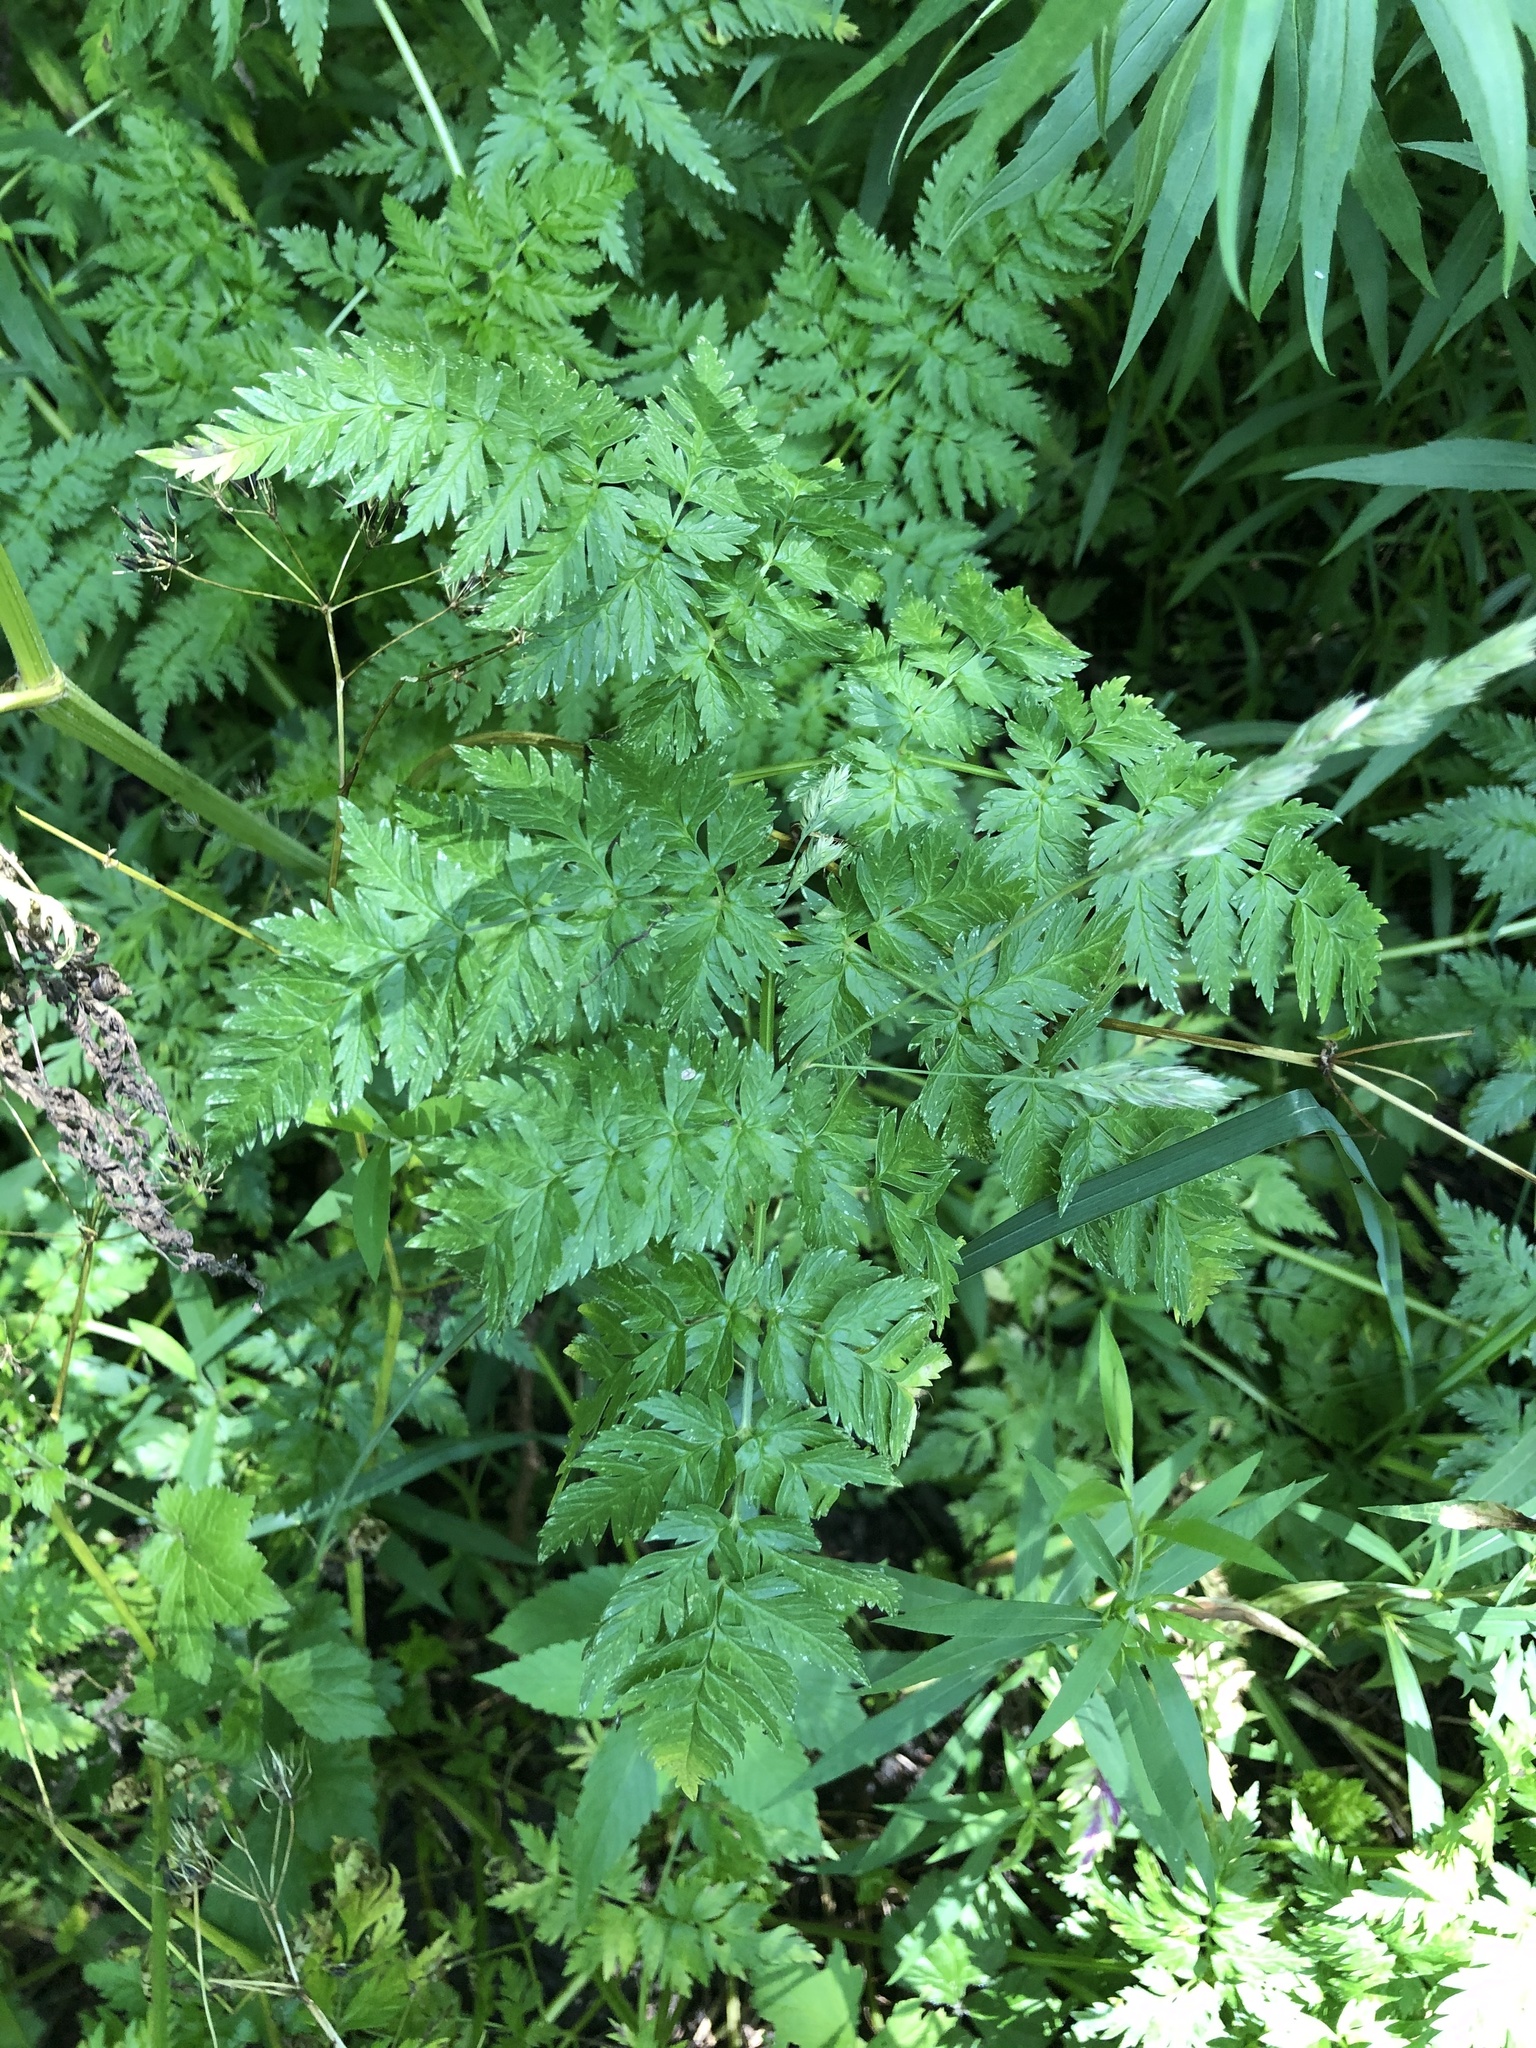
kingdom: Plantae
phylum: Tracheophyta
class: Magnoliopsida
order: Apiales
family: Apiaceae
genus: Anthriscus
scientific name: Anthriscus sylvestris
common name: Cow parsley
